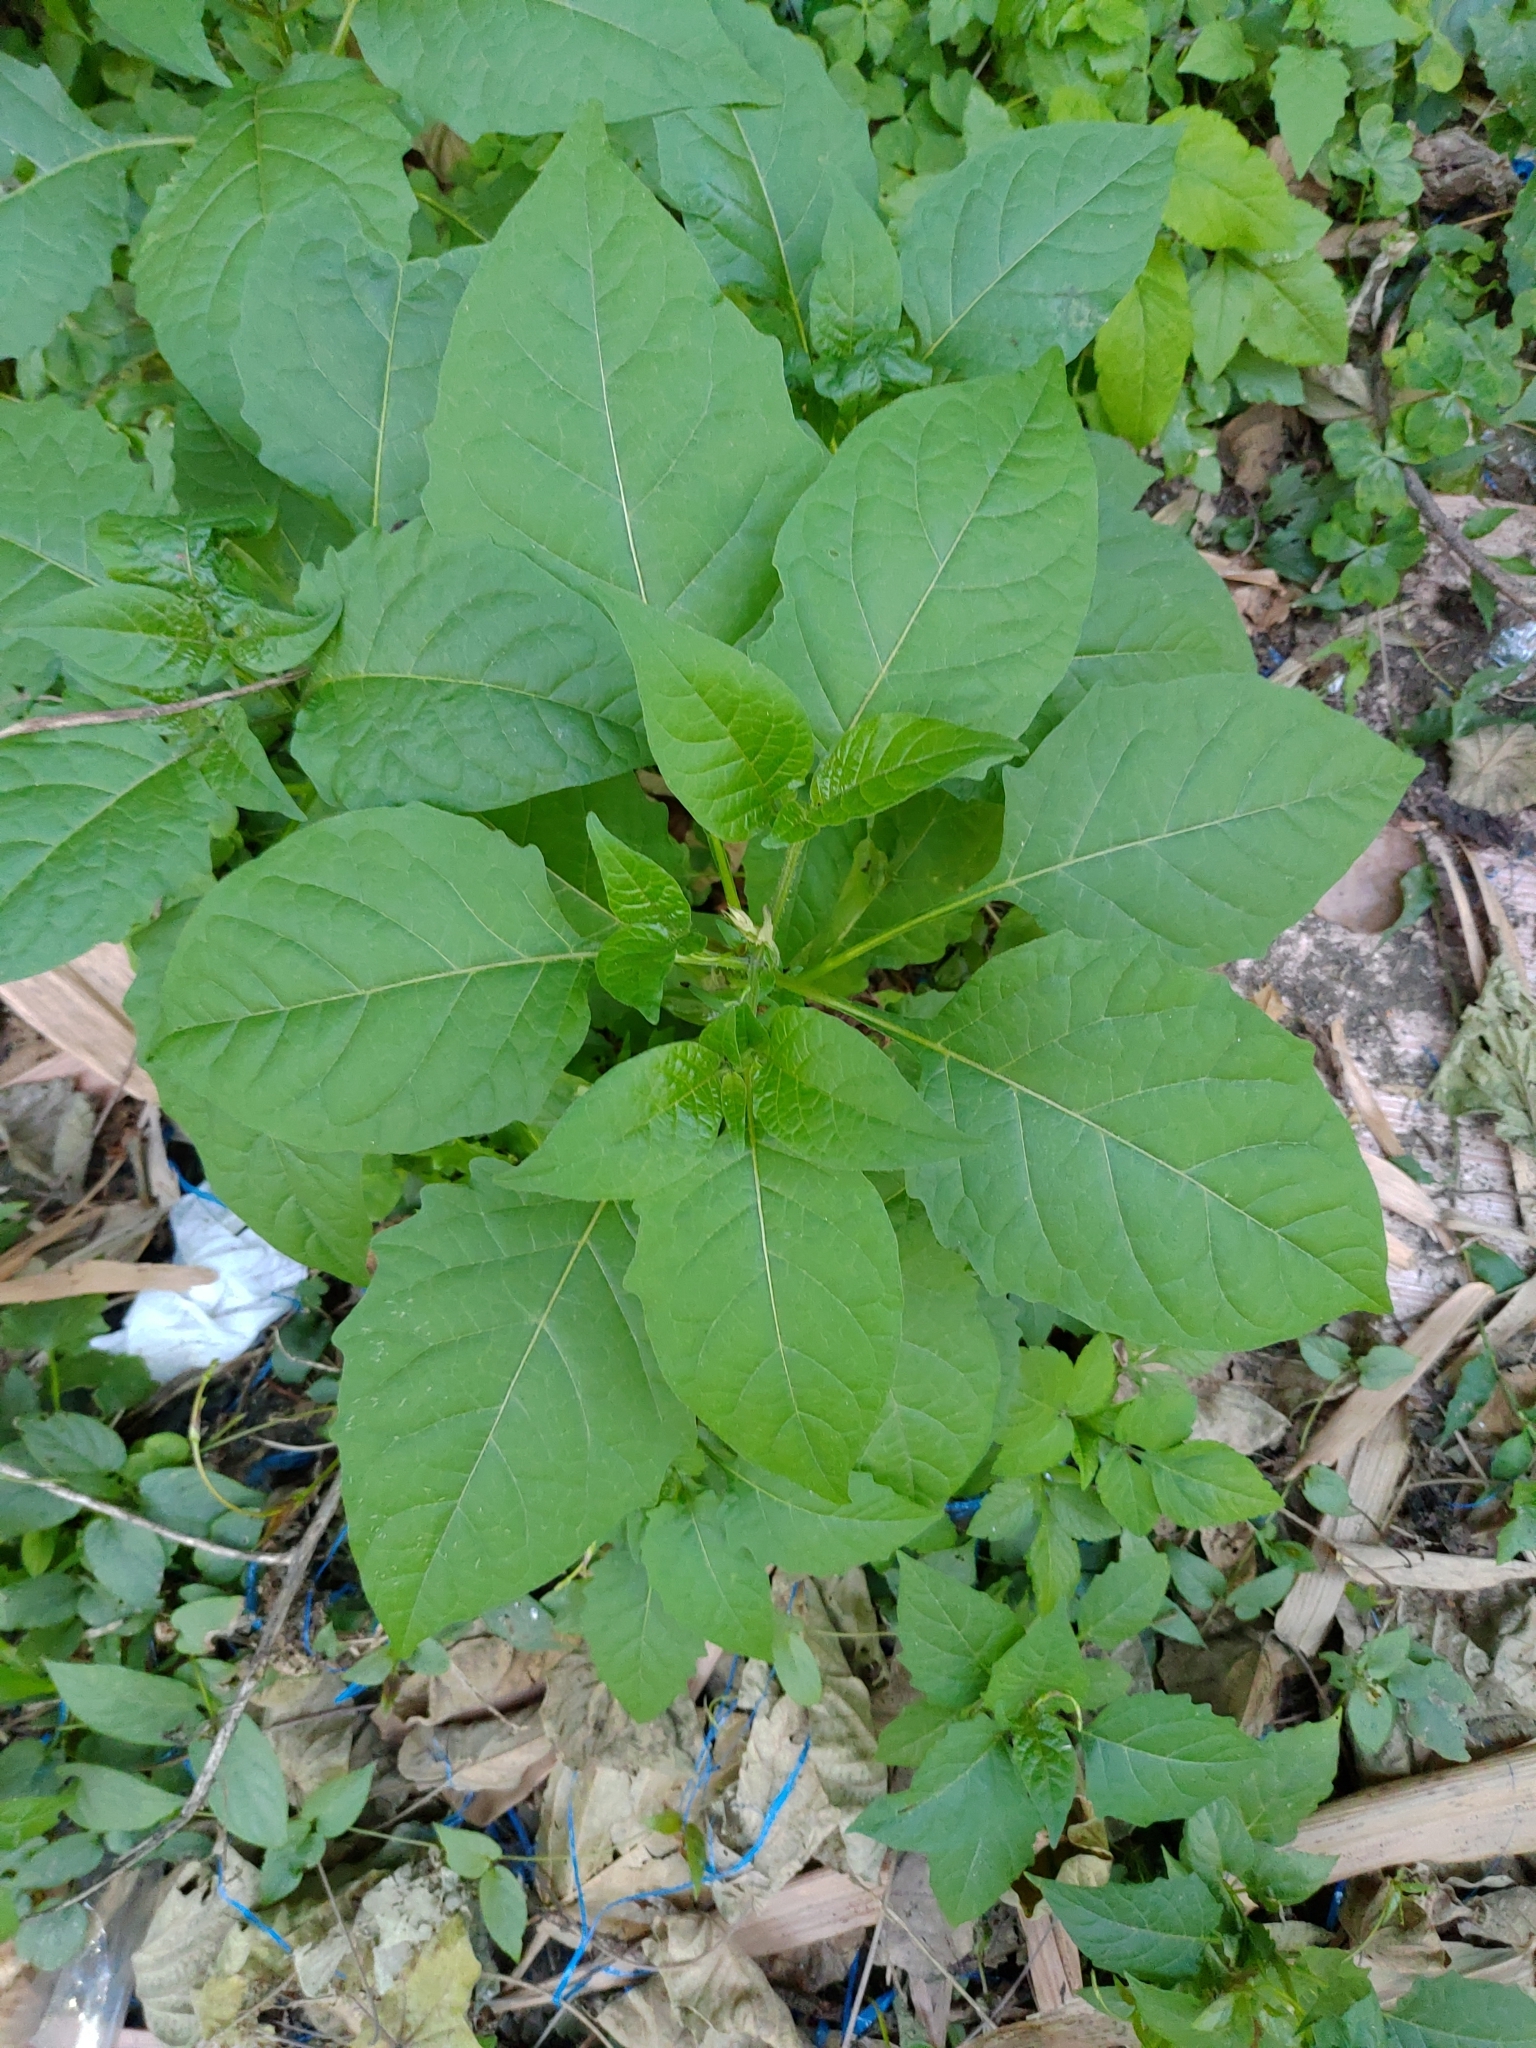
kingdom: Plantae
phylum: Tracheophyta
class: Magnoliopsida
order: Solanales
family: Solanaceae
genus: Solanum
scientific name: Solanum
